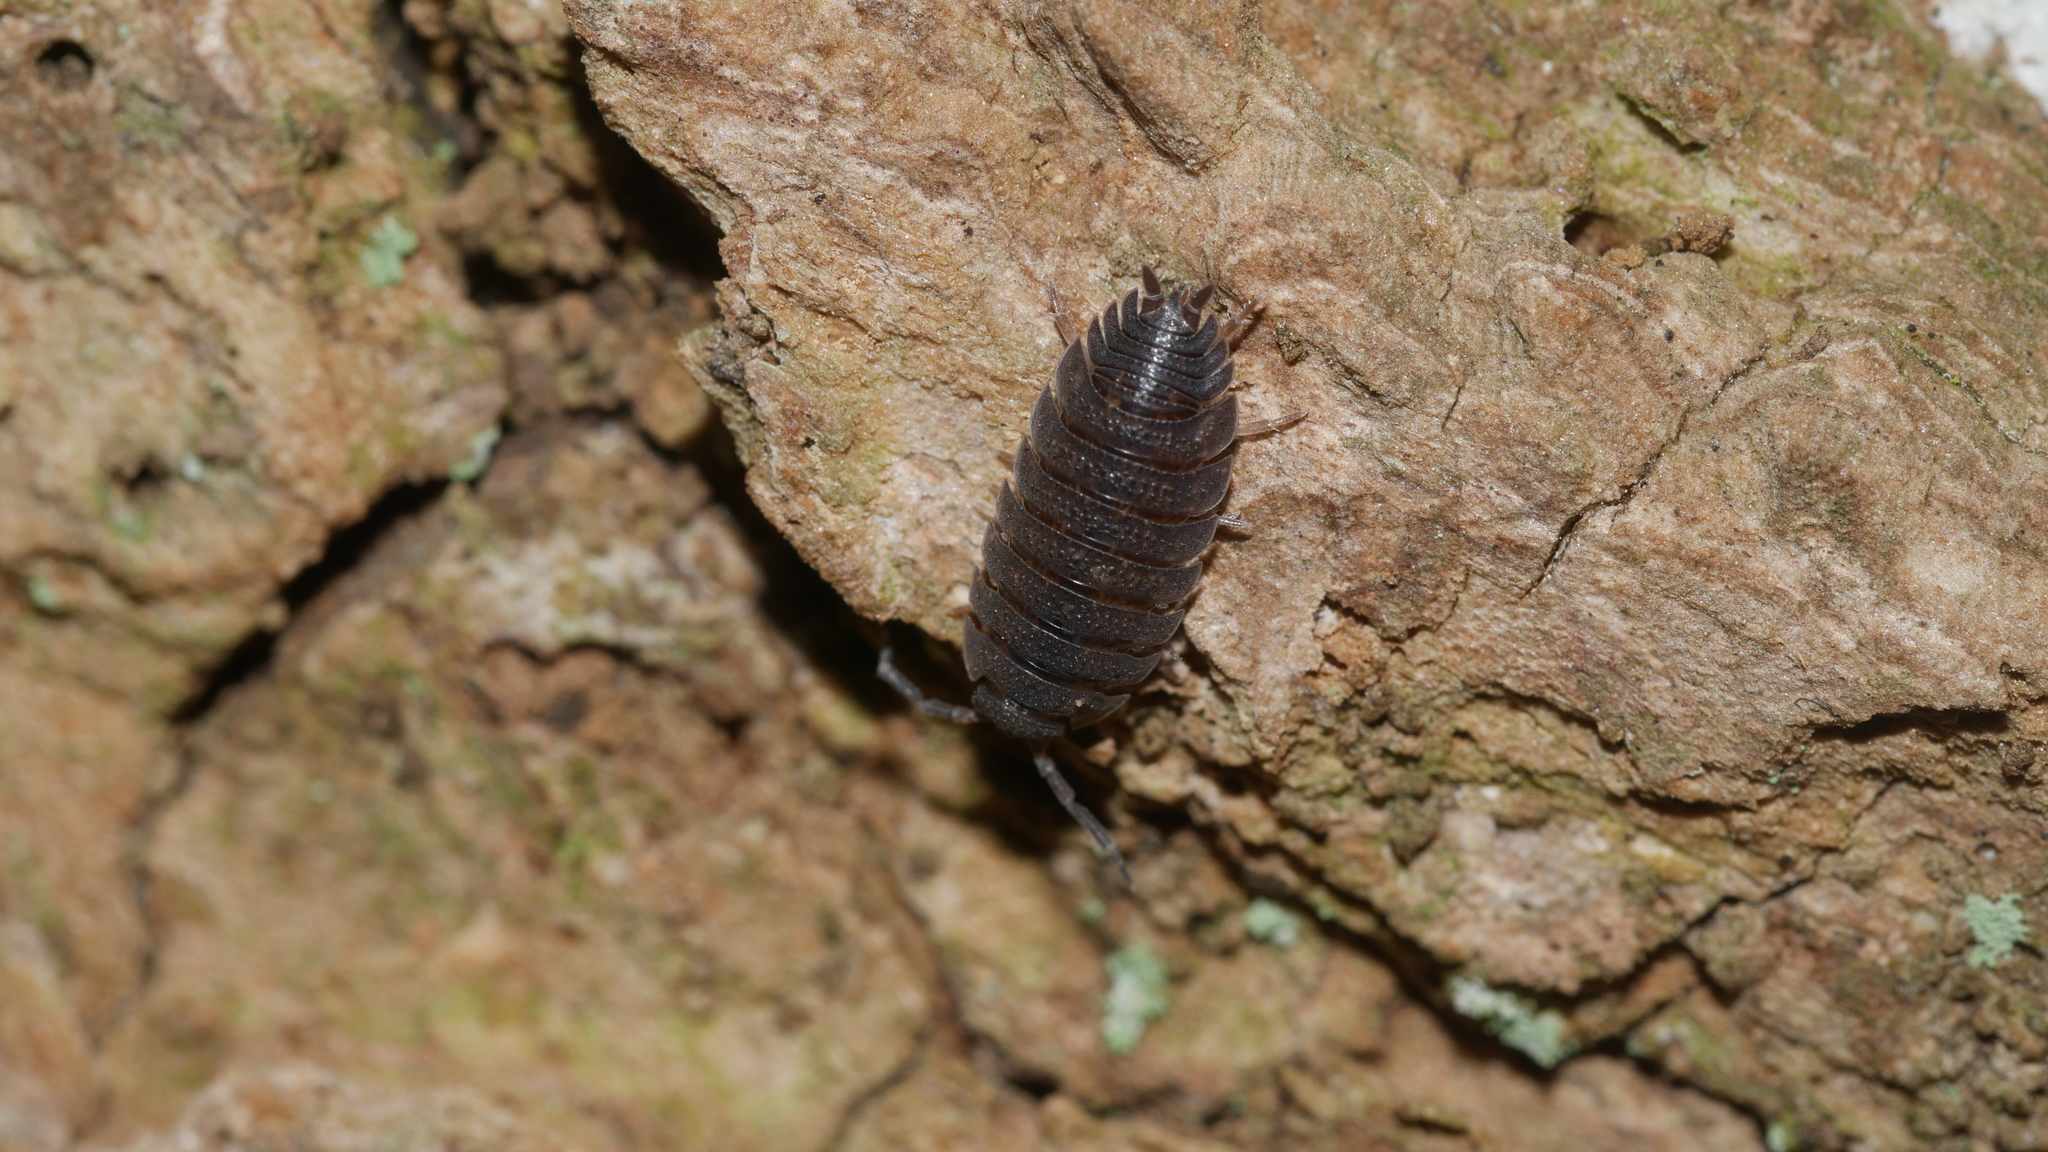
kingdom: Animalia
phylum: Arthropoda
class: Malacostraca
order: Isopoda
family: Porcellionidae
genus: Porcellio
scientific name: Porcellio scaber
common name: Common rough woodlouse
